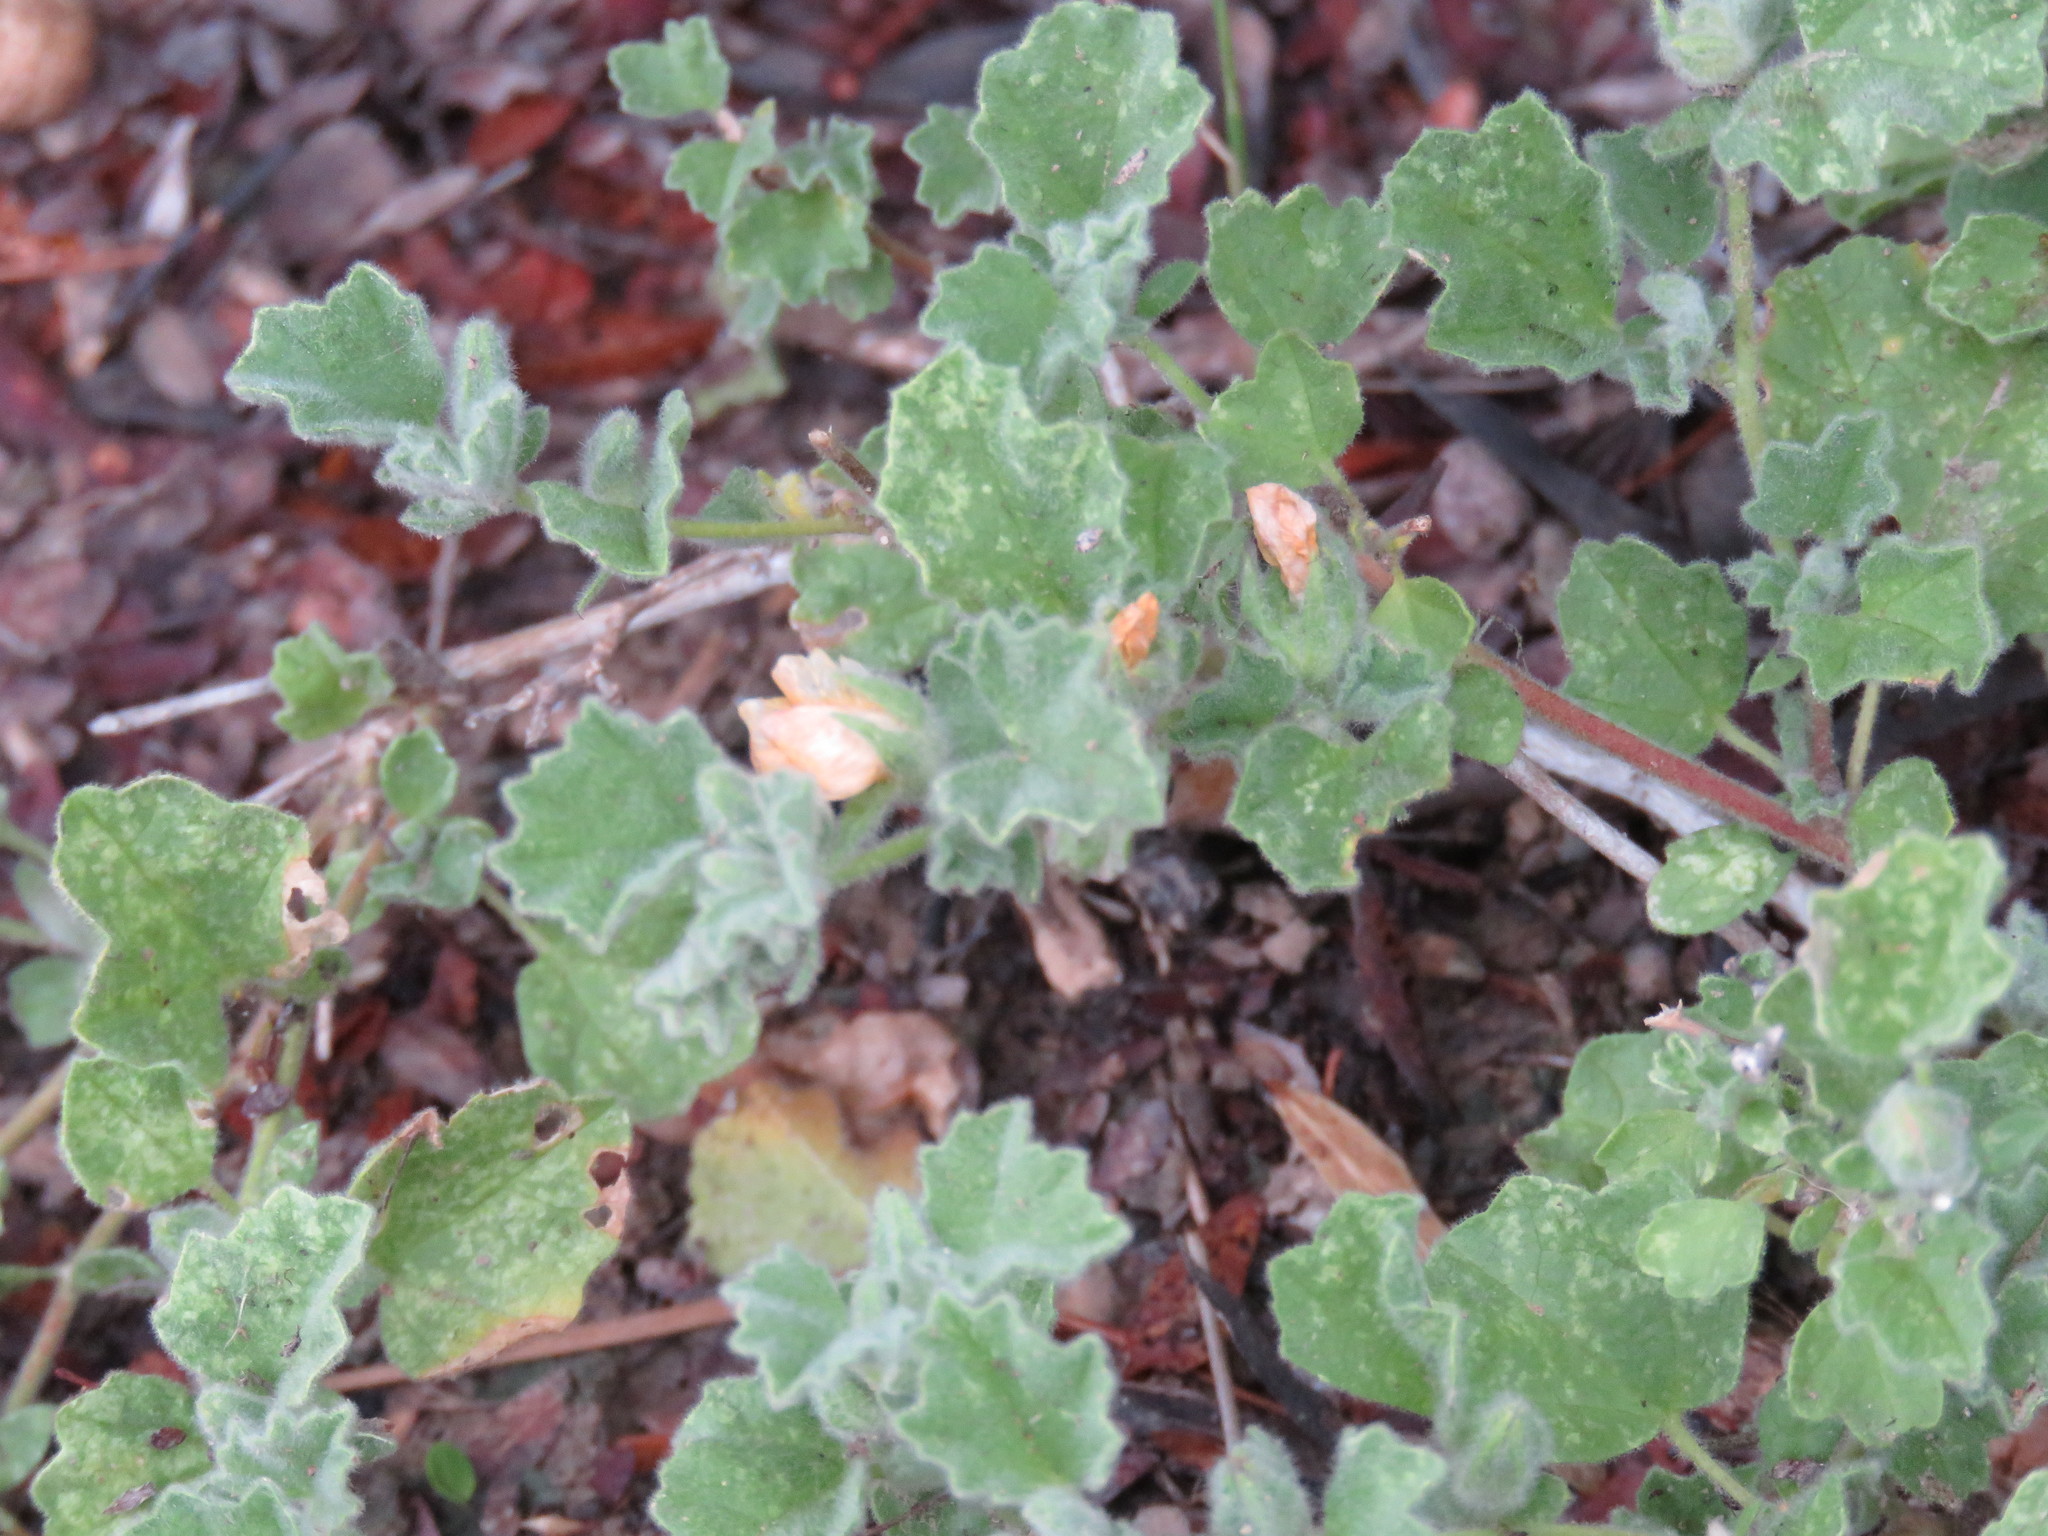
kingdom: Plantae
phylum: Tracheophyta
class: Magnoliopsida
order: Malvales
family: Malvaceae
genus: Billieturnera
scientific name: Billieturnera helleri
